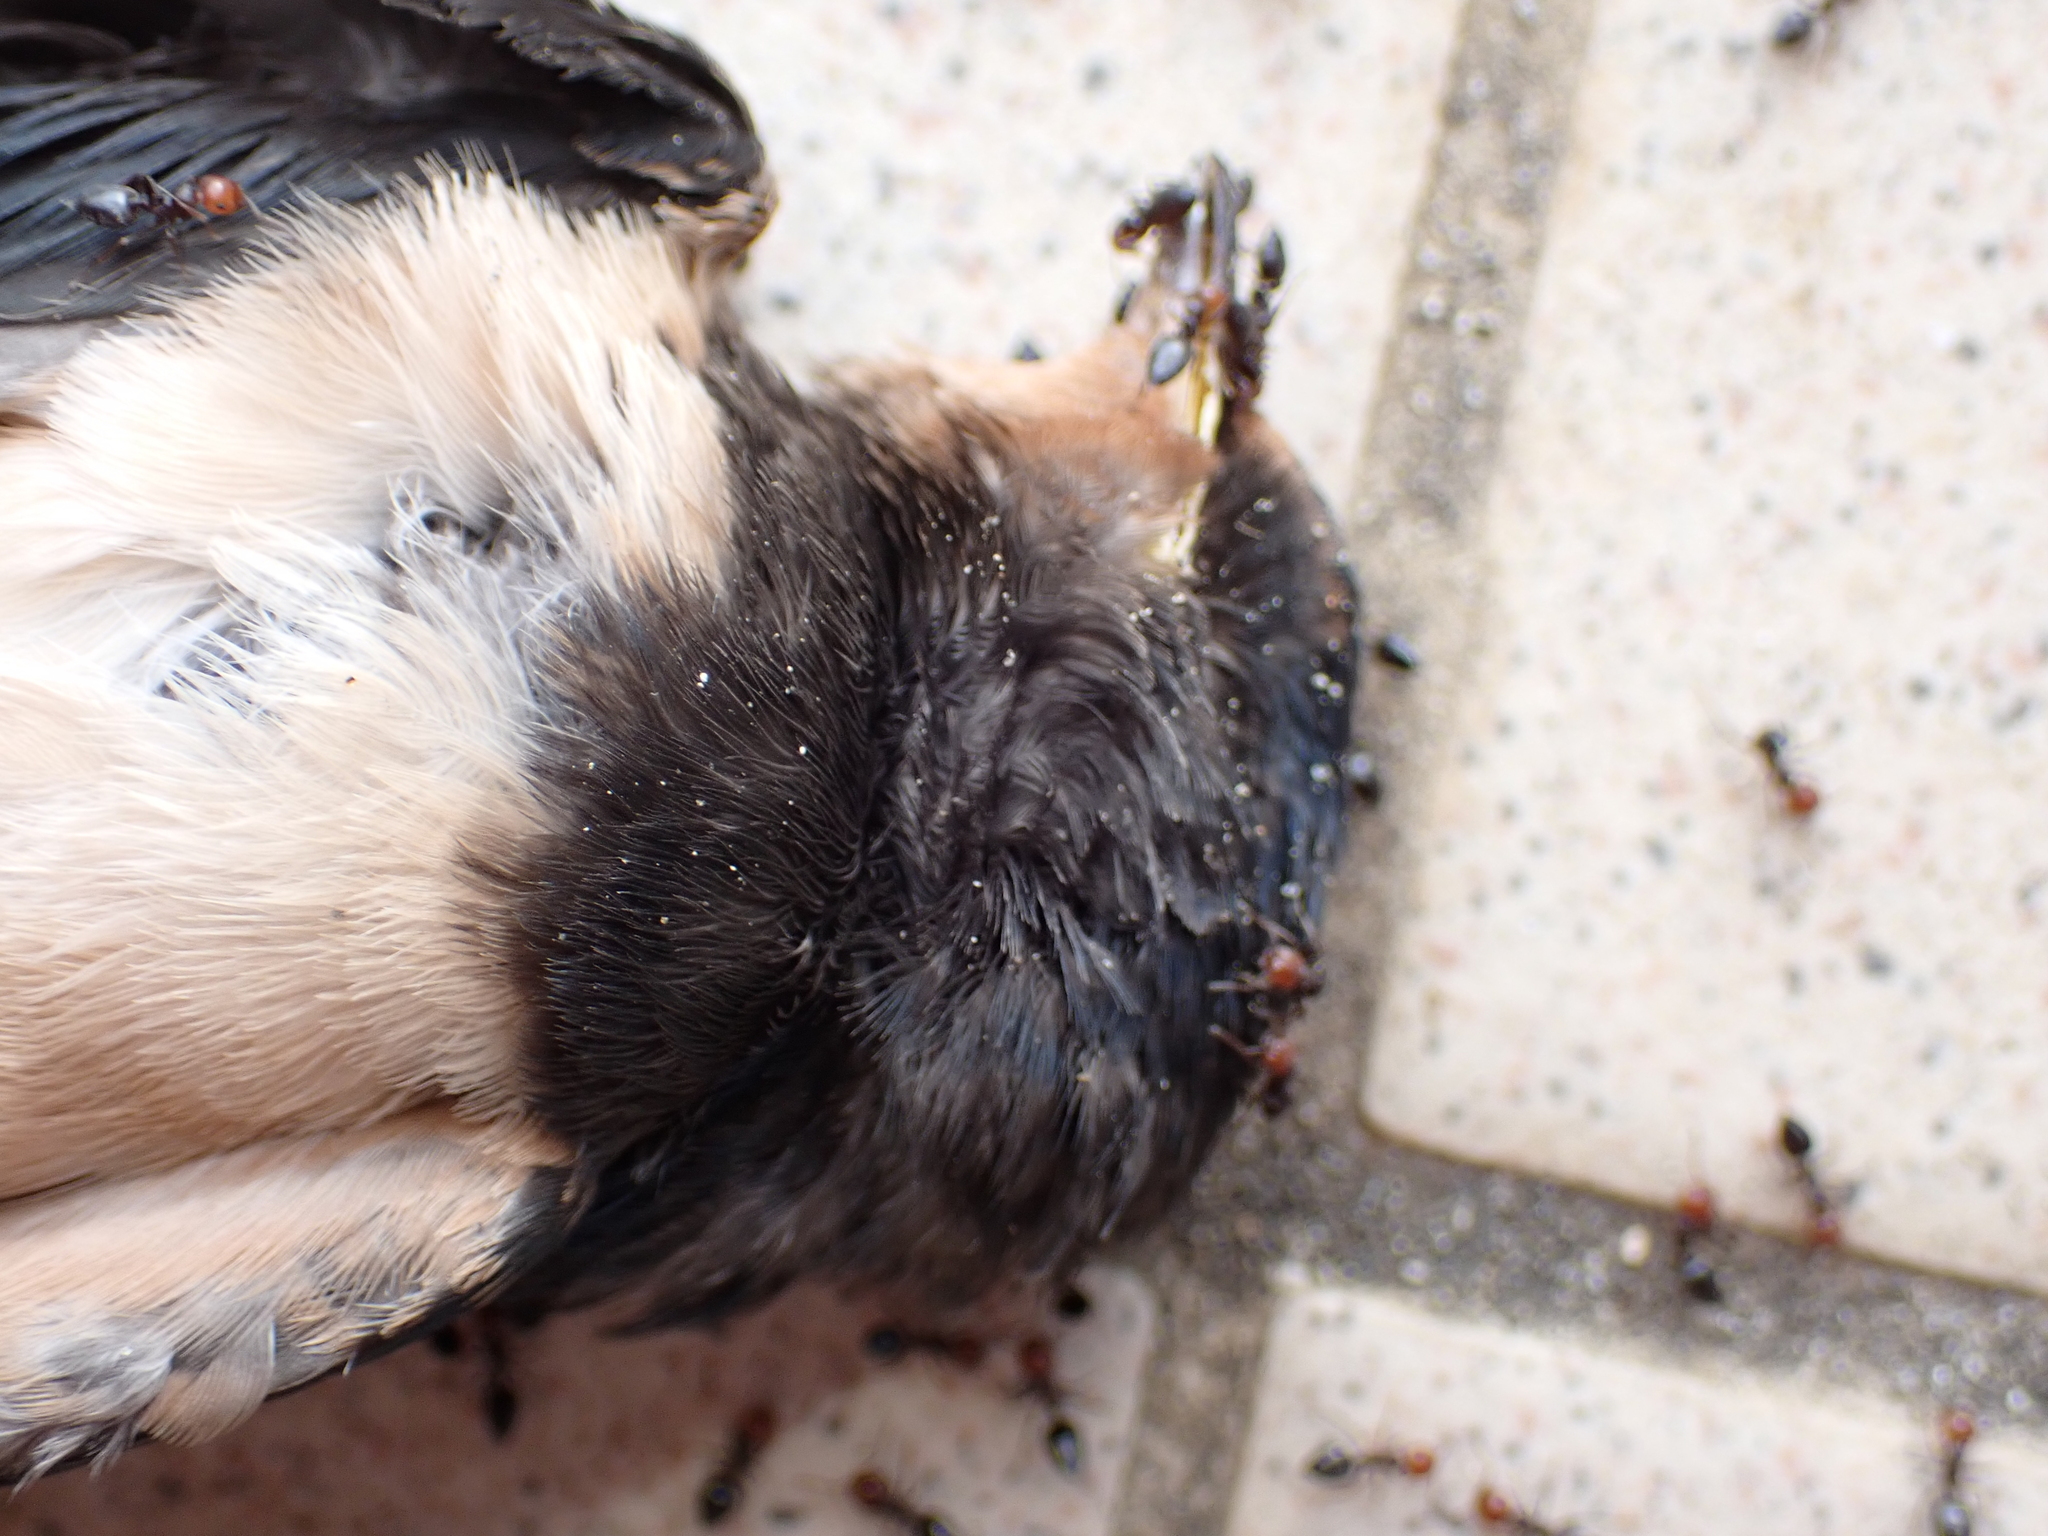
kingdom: Animalia
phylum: Chordata
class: Aves
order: Passeriformes
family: Hirundinidae
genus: Hirundo
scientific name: Hirundo rustica
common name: Barn swallow
